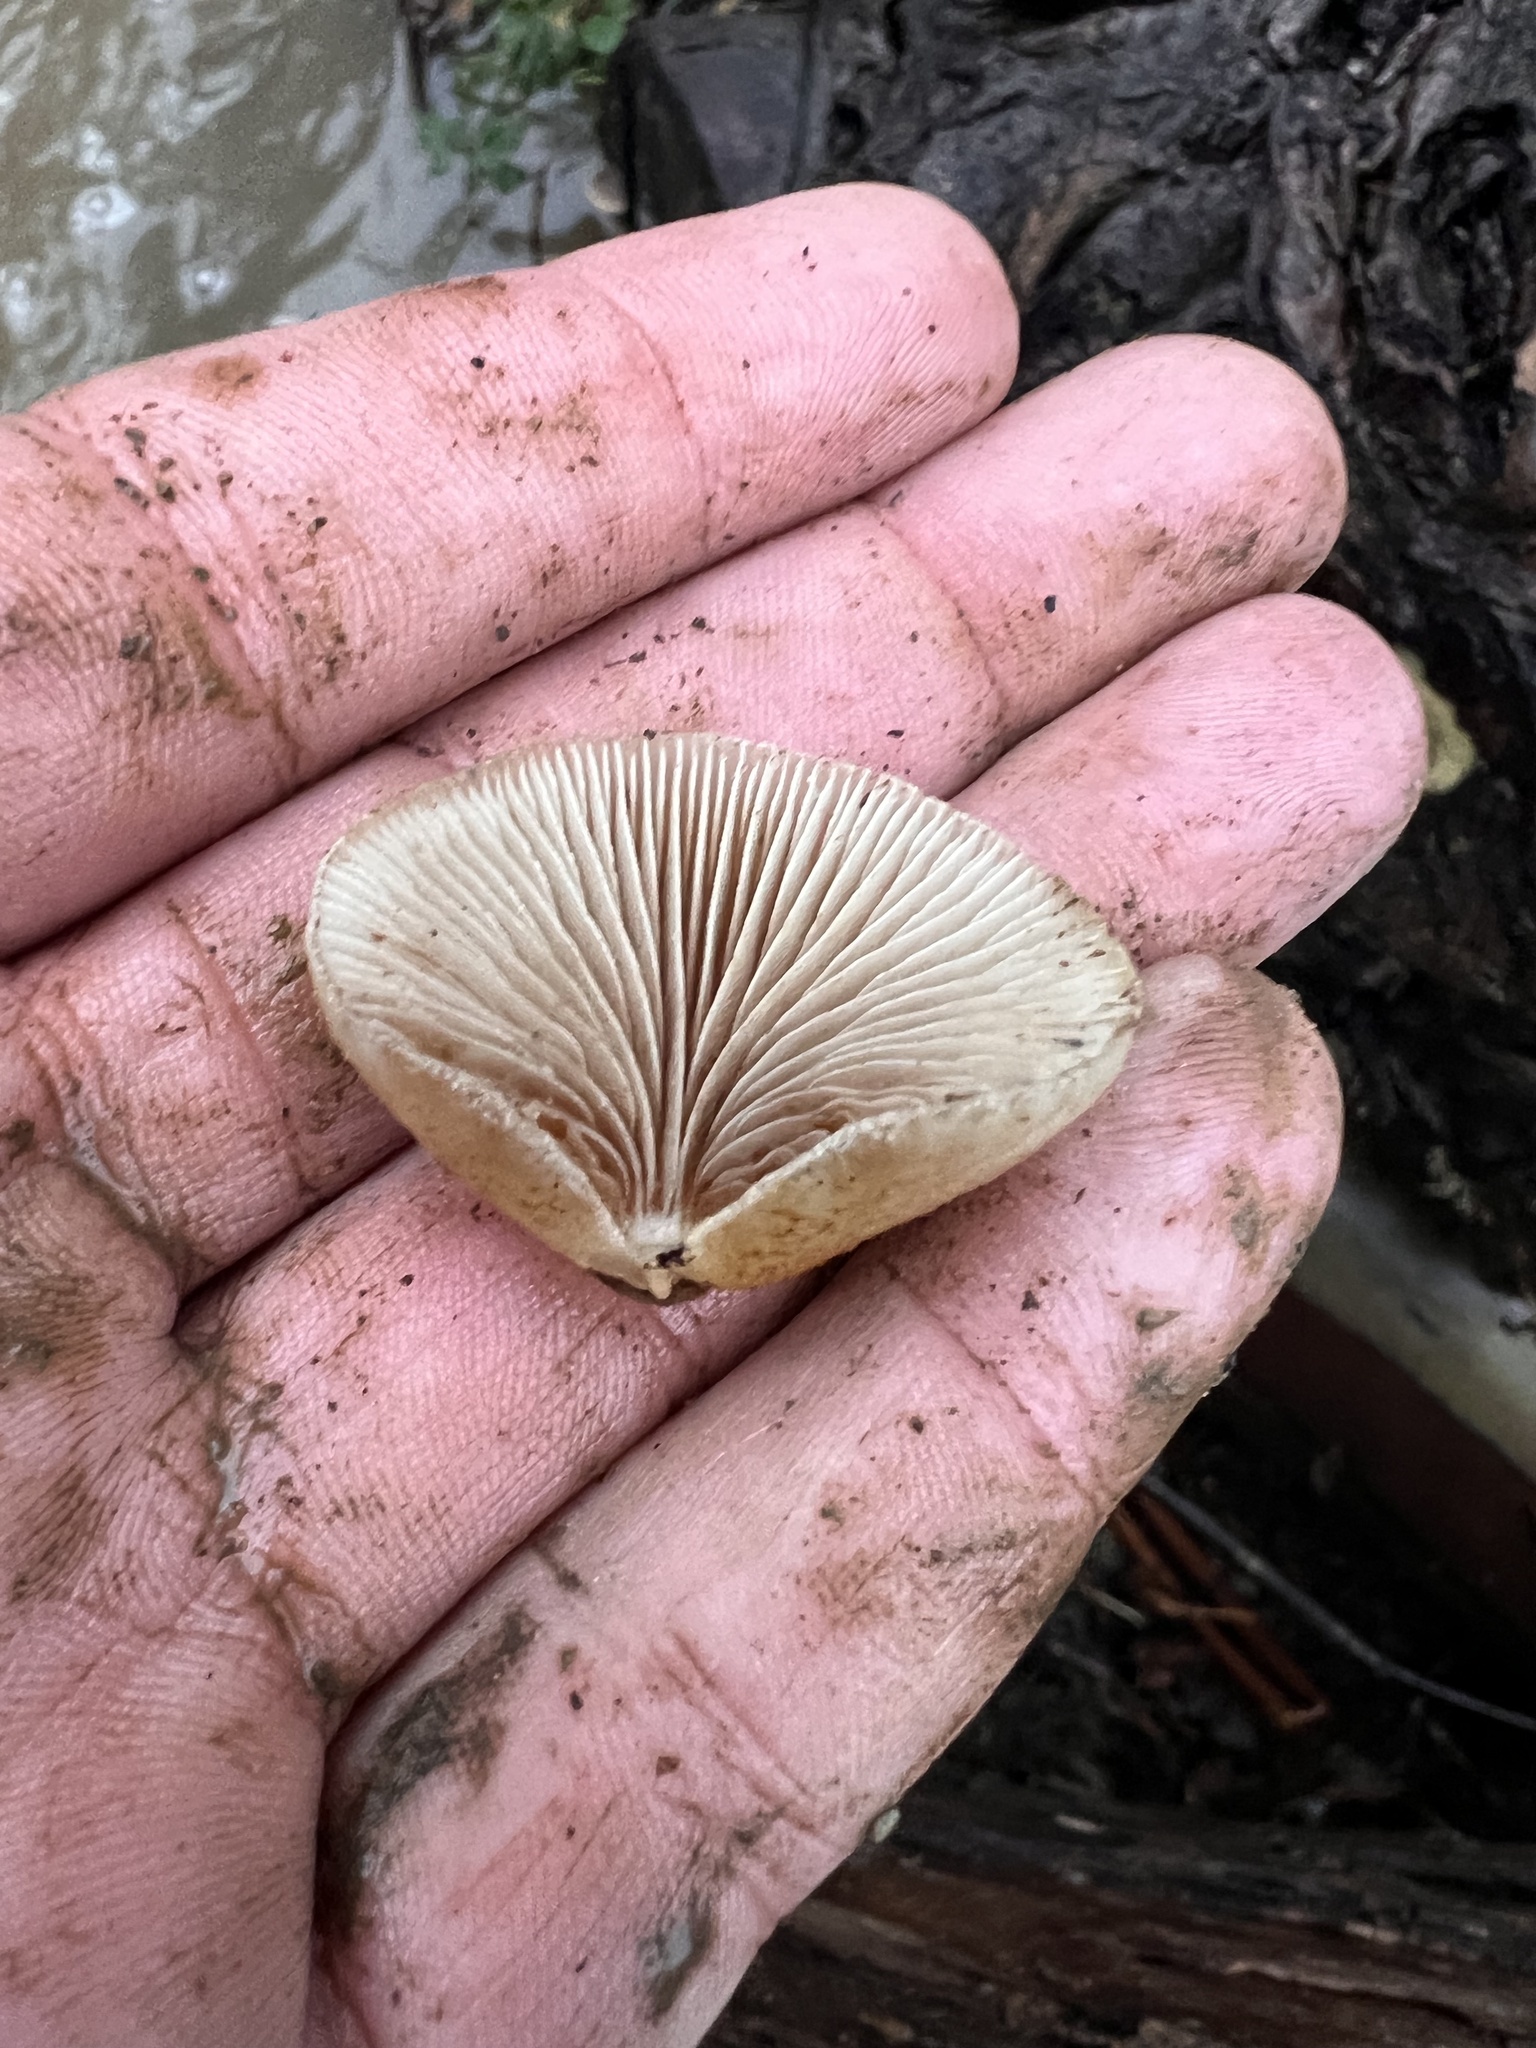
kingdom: Fungi
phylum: Basidiomycota
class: Agaricomycetes
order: Agaricales
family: Crepidotaceae
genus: Crepidotus
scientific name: Crepidotus calolepis
